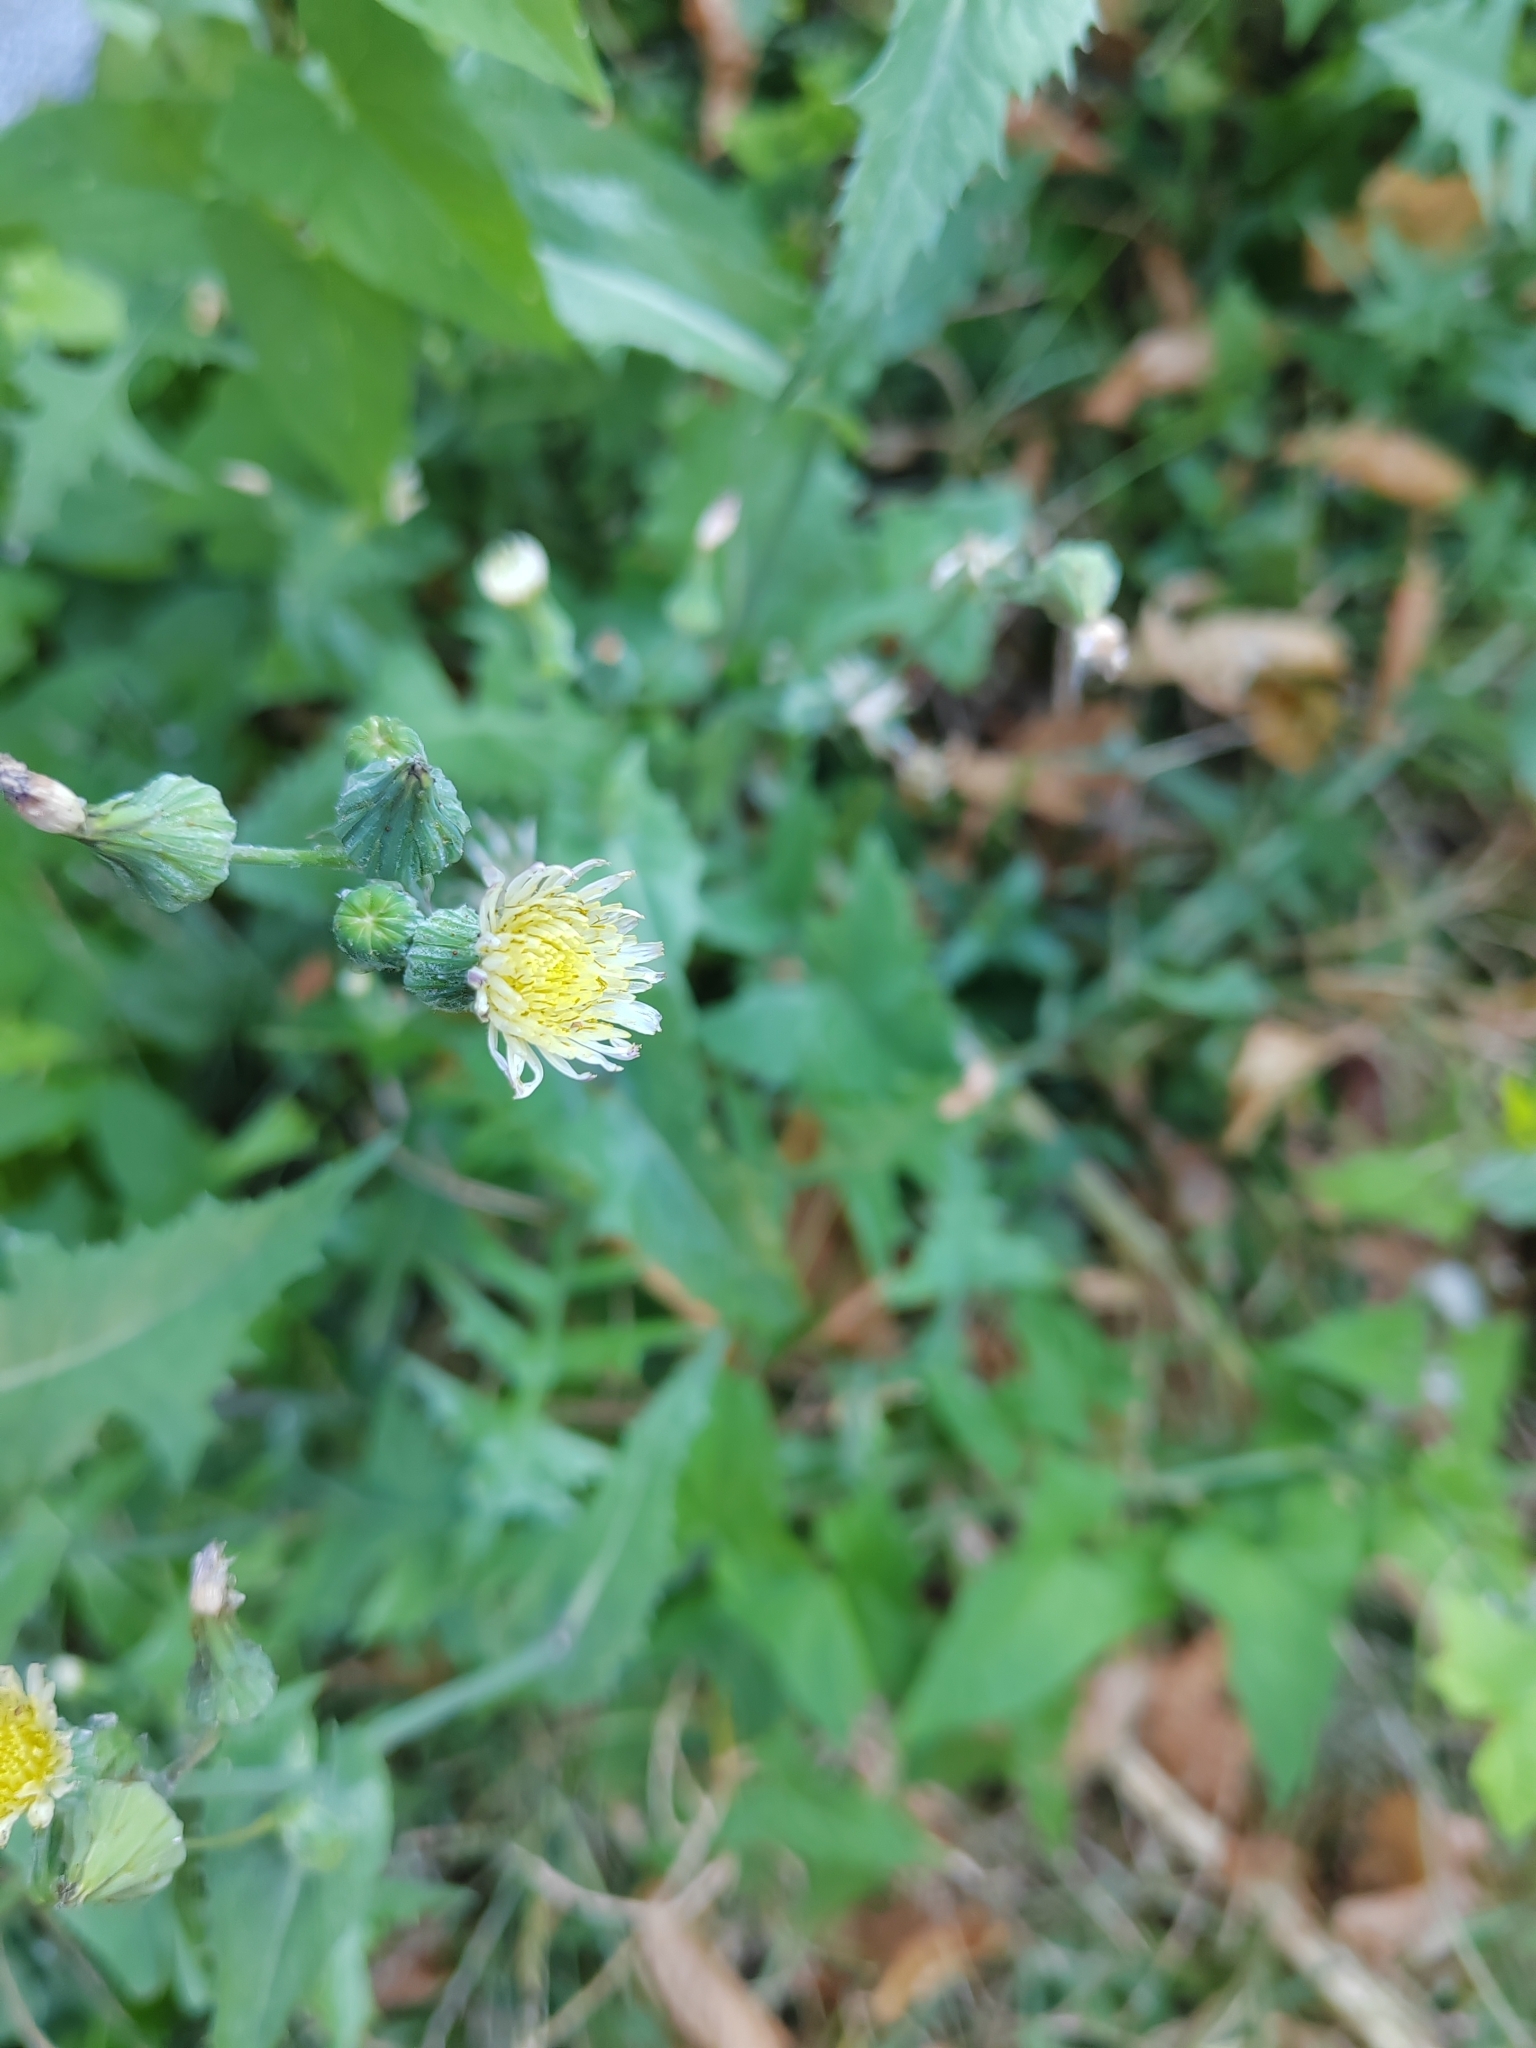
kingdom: Plantae
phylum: Tracheophyta
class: Magnoliopsida
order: Asterales
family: Asteraceae
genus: Sonchus
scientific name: Sonchus oleraceus
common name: Common sowthistle
